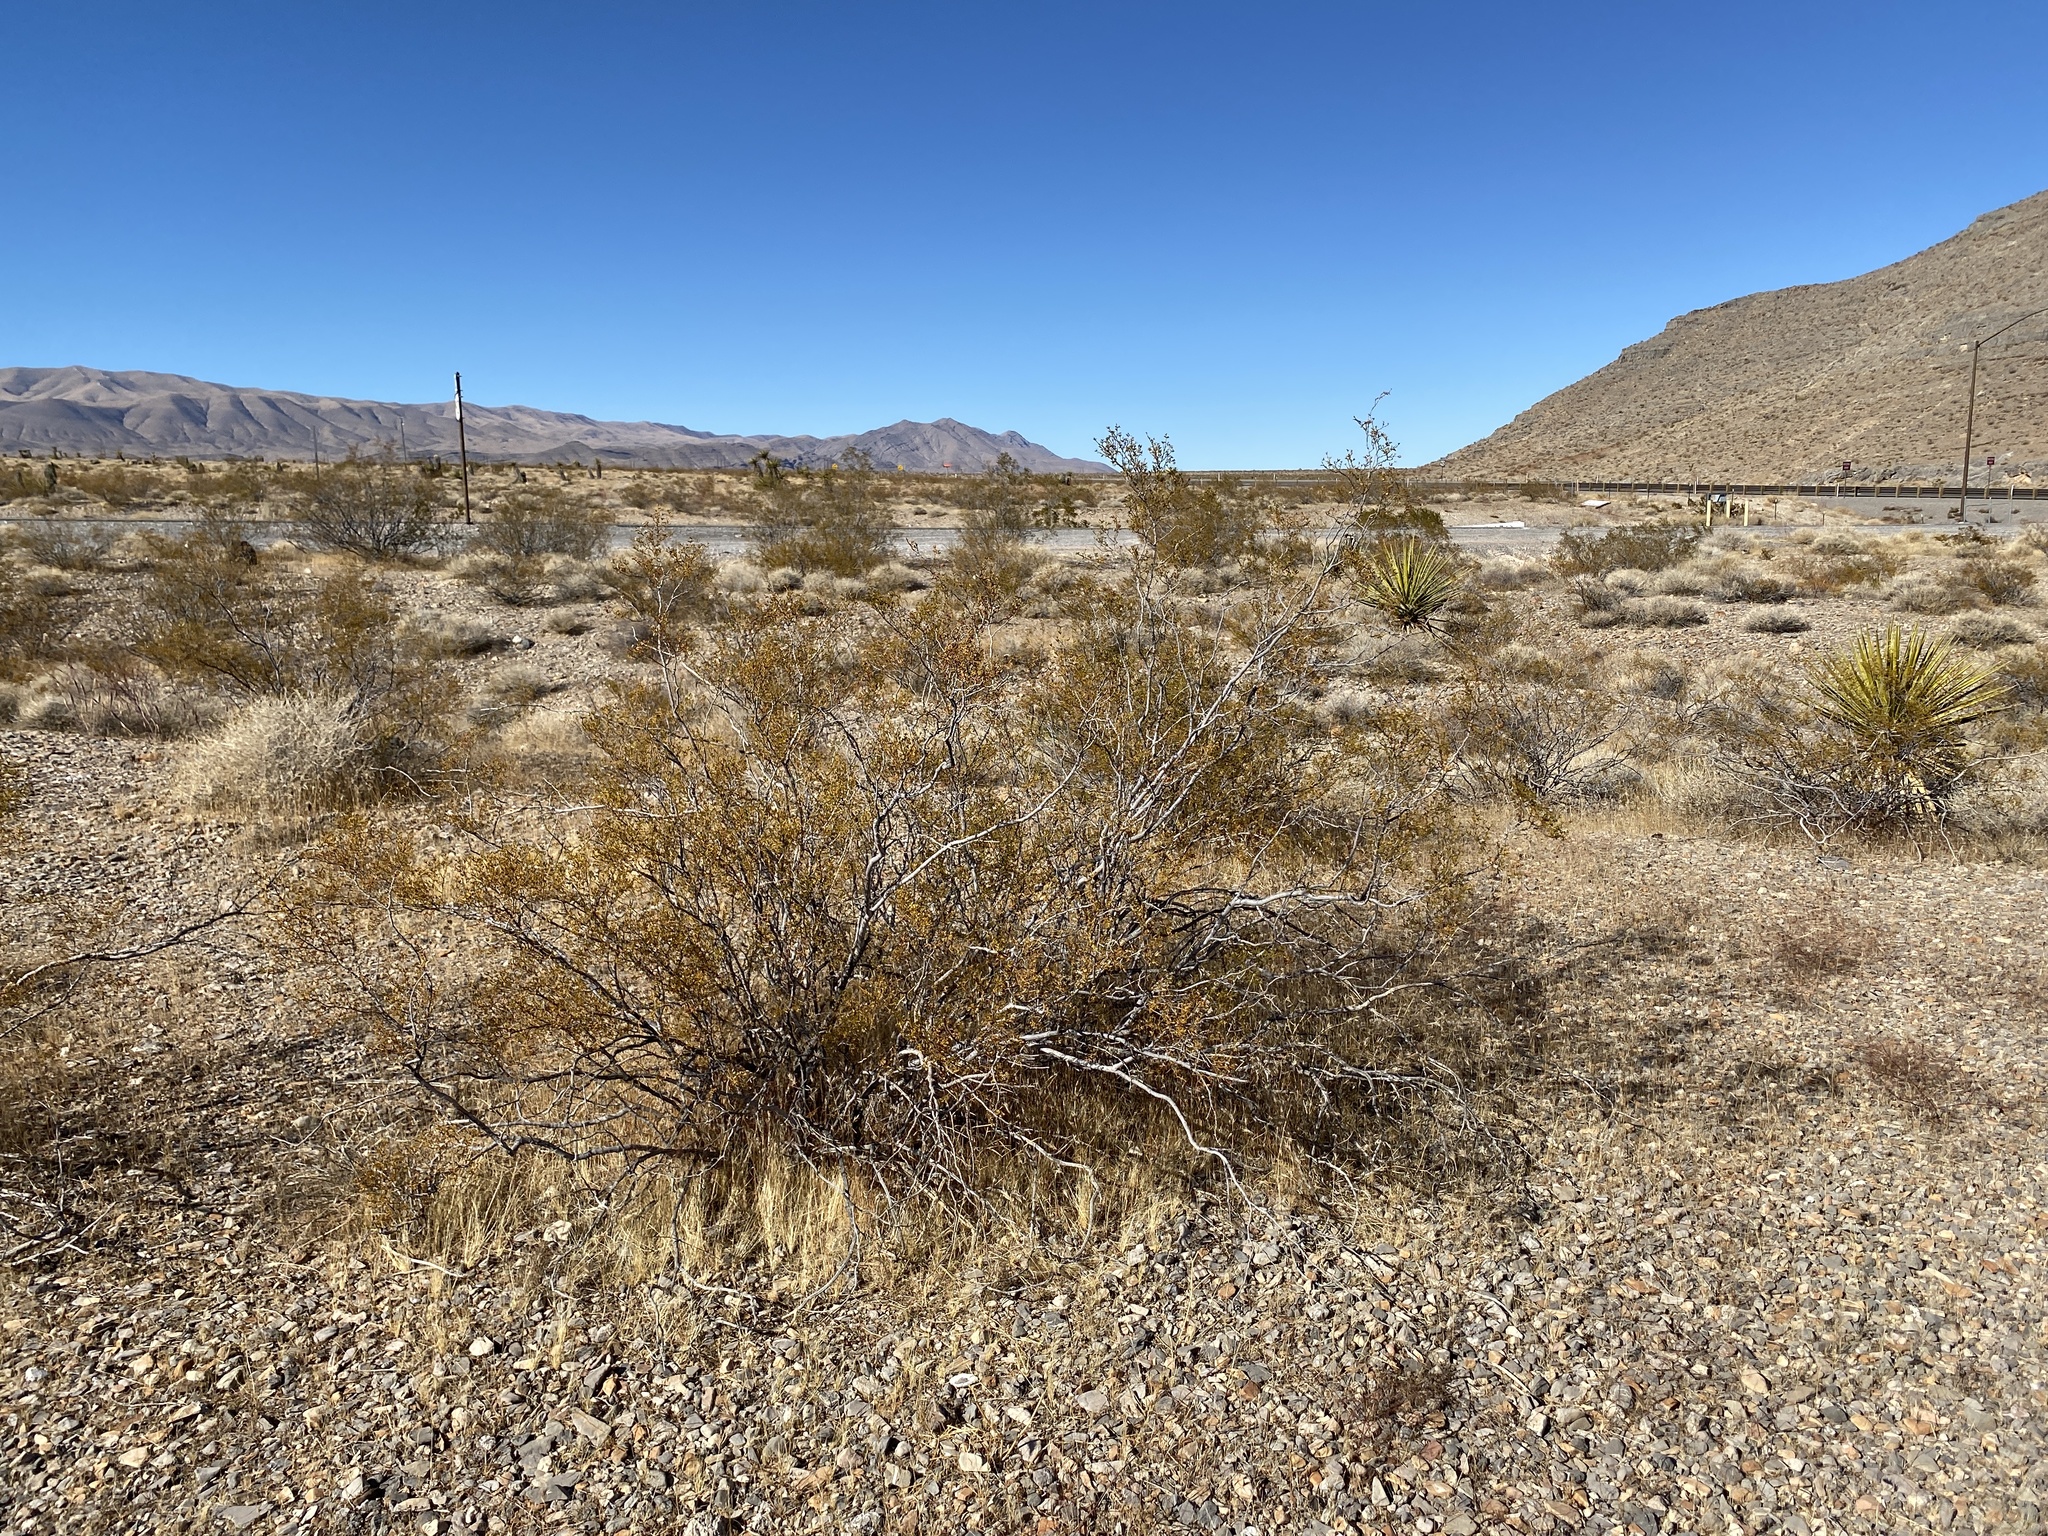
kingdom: Plantae
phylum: Tracheophyta
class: Magnoliopsida
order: Zygophyllales
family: Zygophyllaceae
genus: Larrea
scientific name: Larrea tridentata
